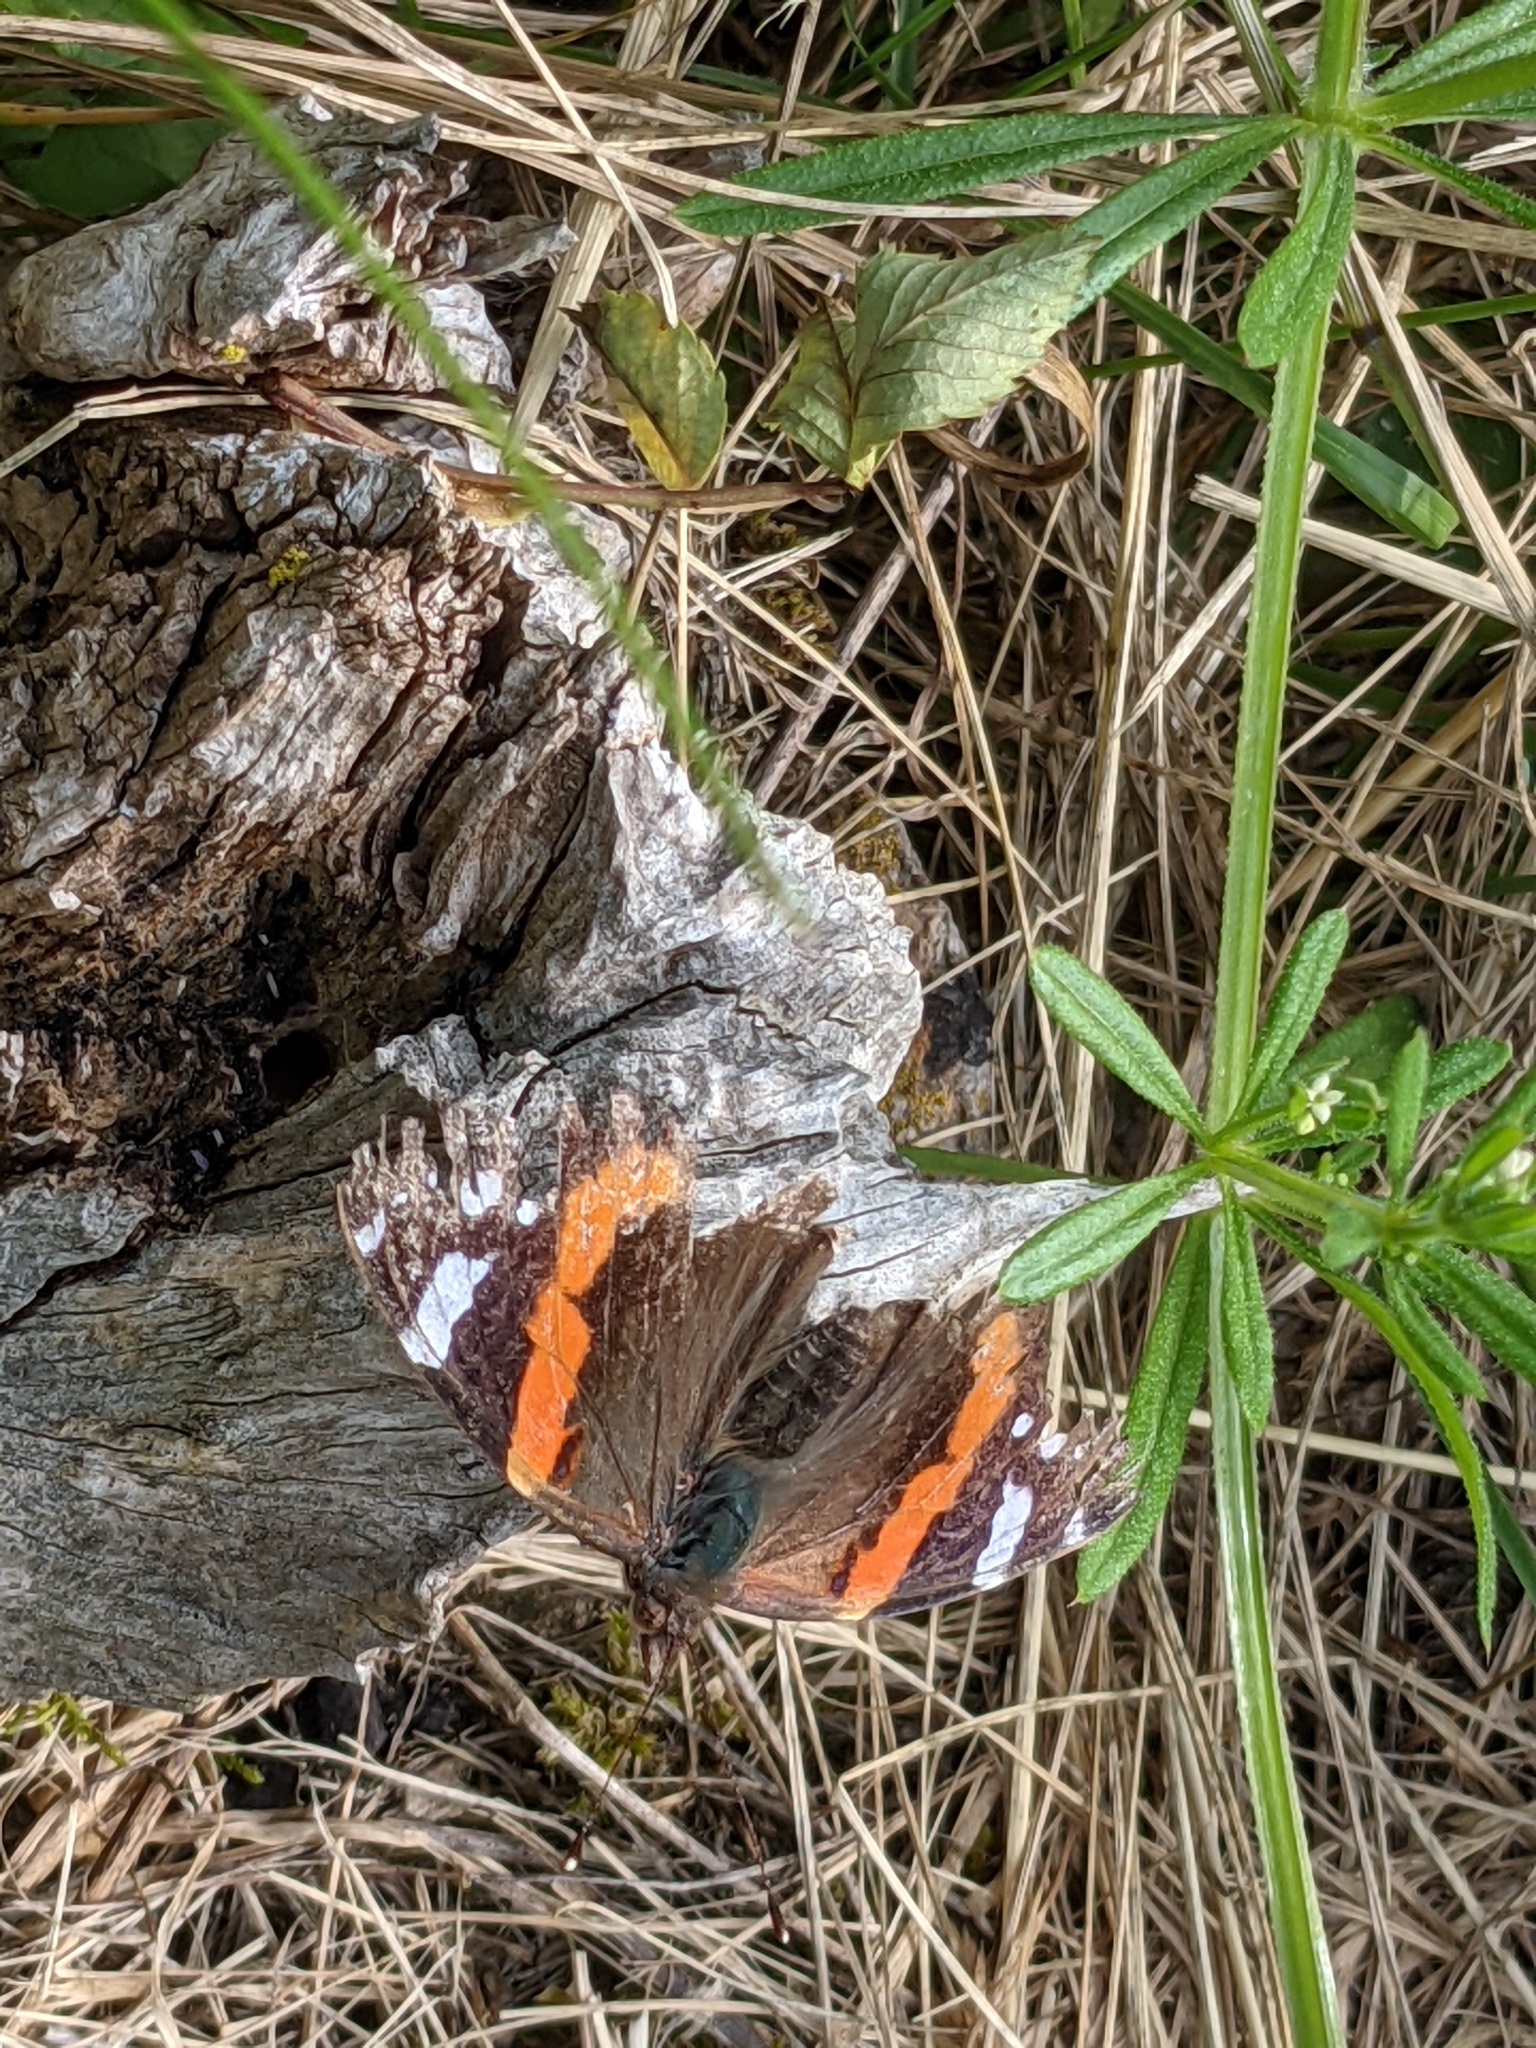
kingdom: Animalia
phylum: Arthropoda
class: Insecta
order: Lepidoptera
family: Nymphalidae
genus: Vanessa
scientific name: Vanessa atalanta
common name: Red admiral
